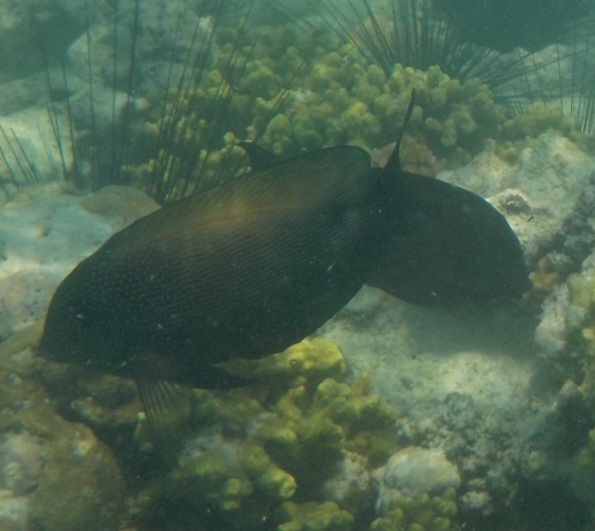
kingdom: Animalia
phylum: Chordata
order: Perciformes
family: Acanthuridae
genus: Ctenochaetus
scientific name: Ctenochaetus binotatus
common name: Two-spot bristletooth
